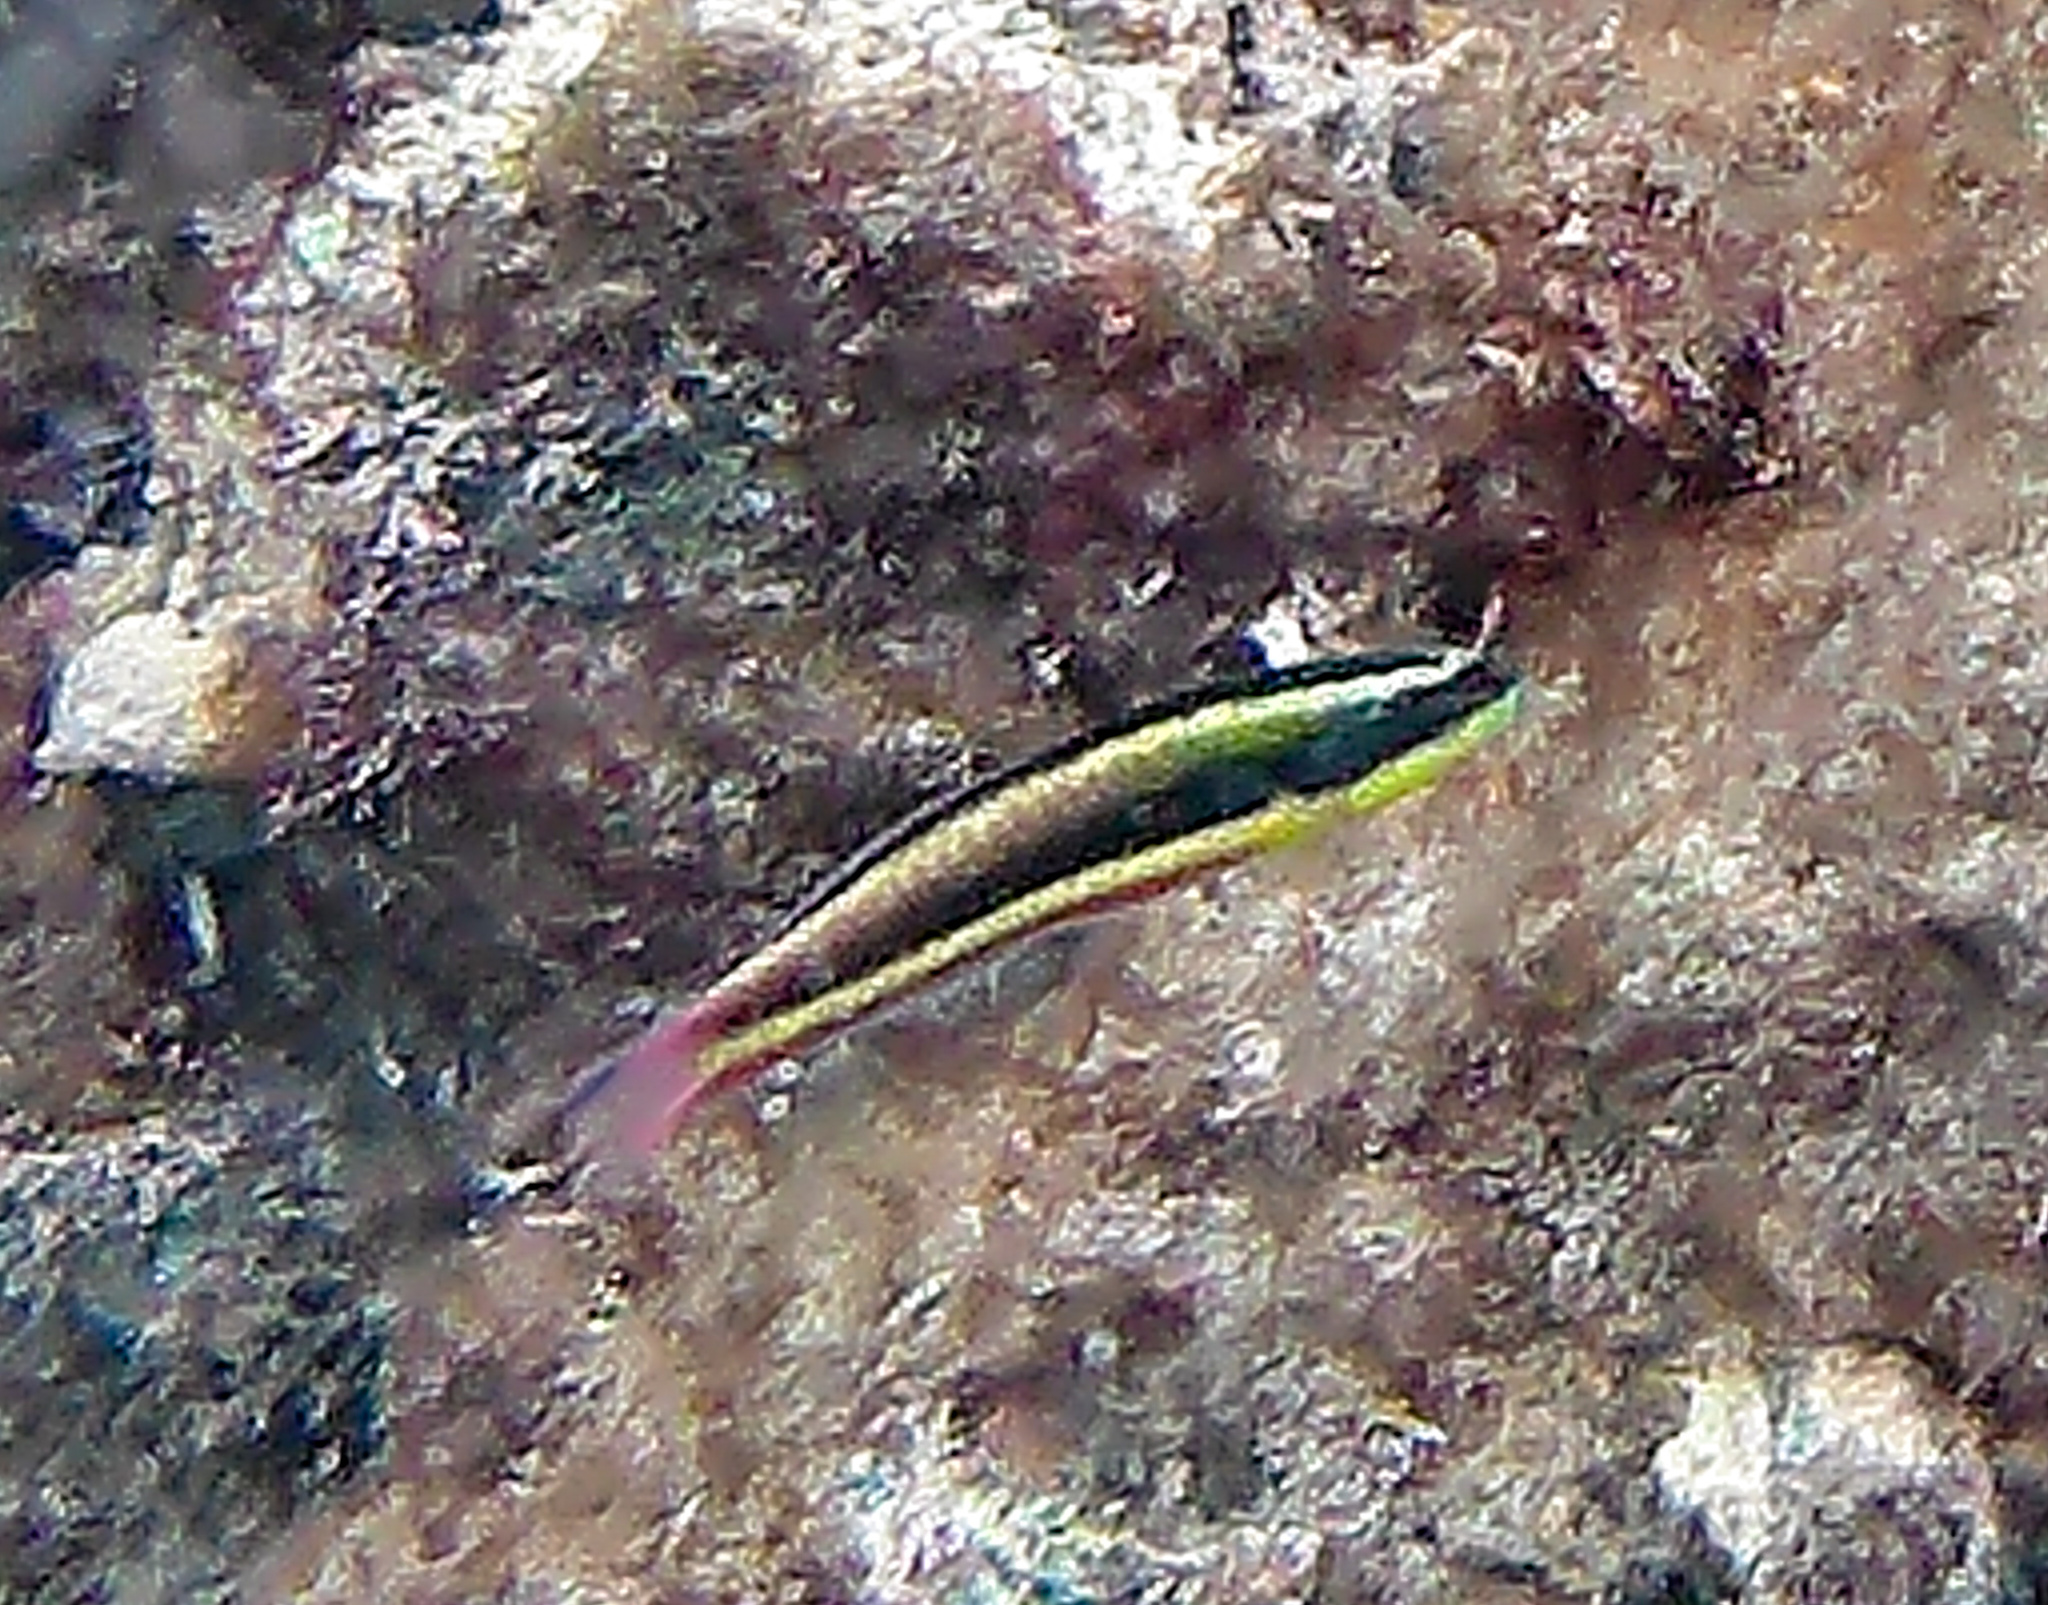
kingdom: Animalia
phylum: Chordata
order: Perciformes
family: Labridae
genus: Thalassoma
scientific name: Thalassoma lucasanum
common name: Cortez rainbow wrasse
